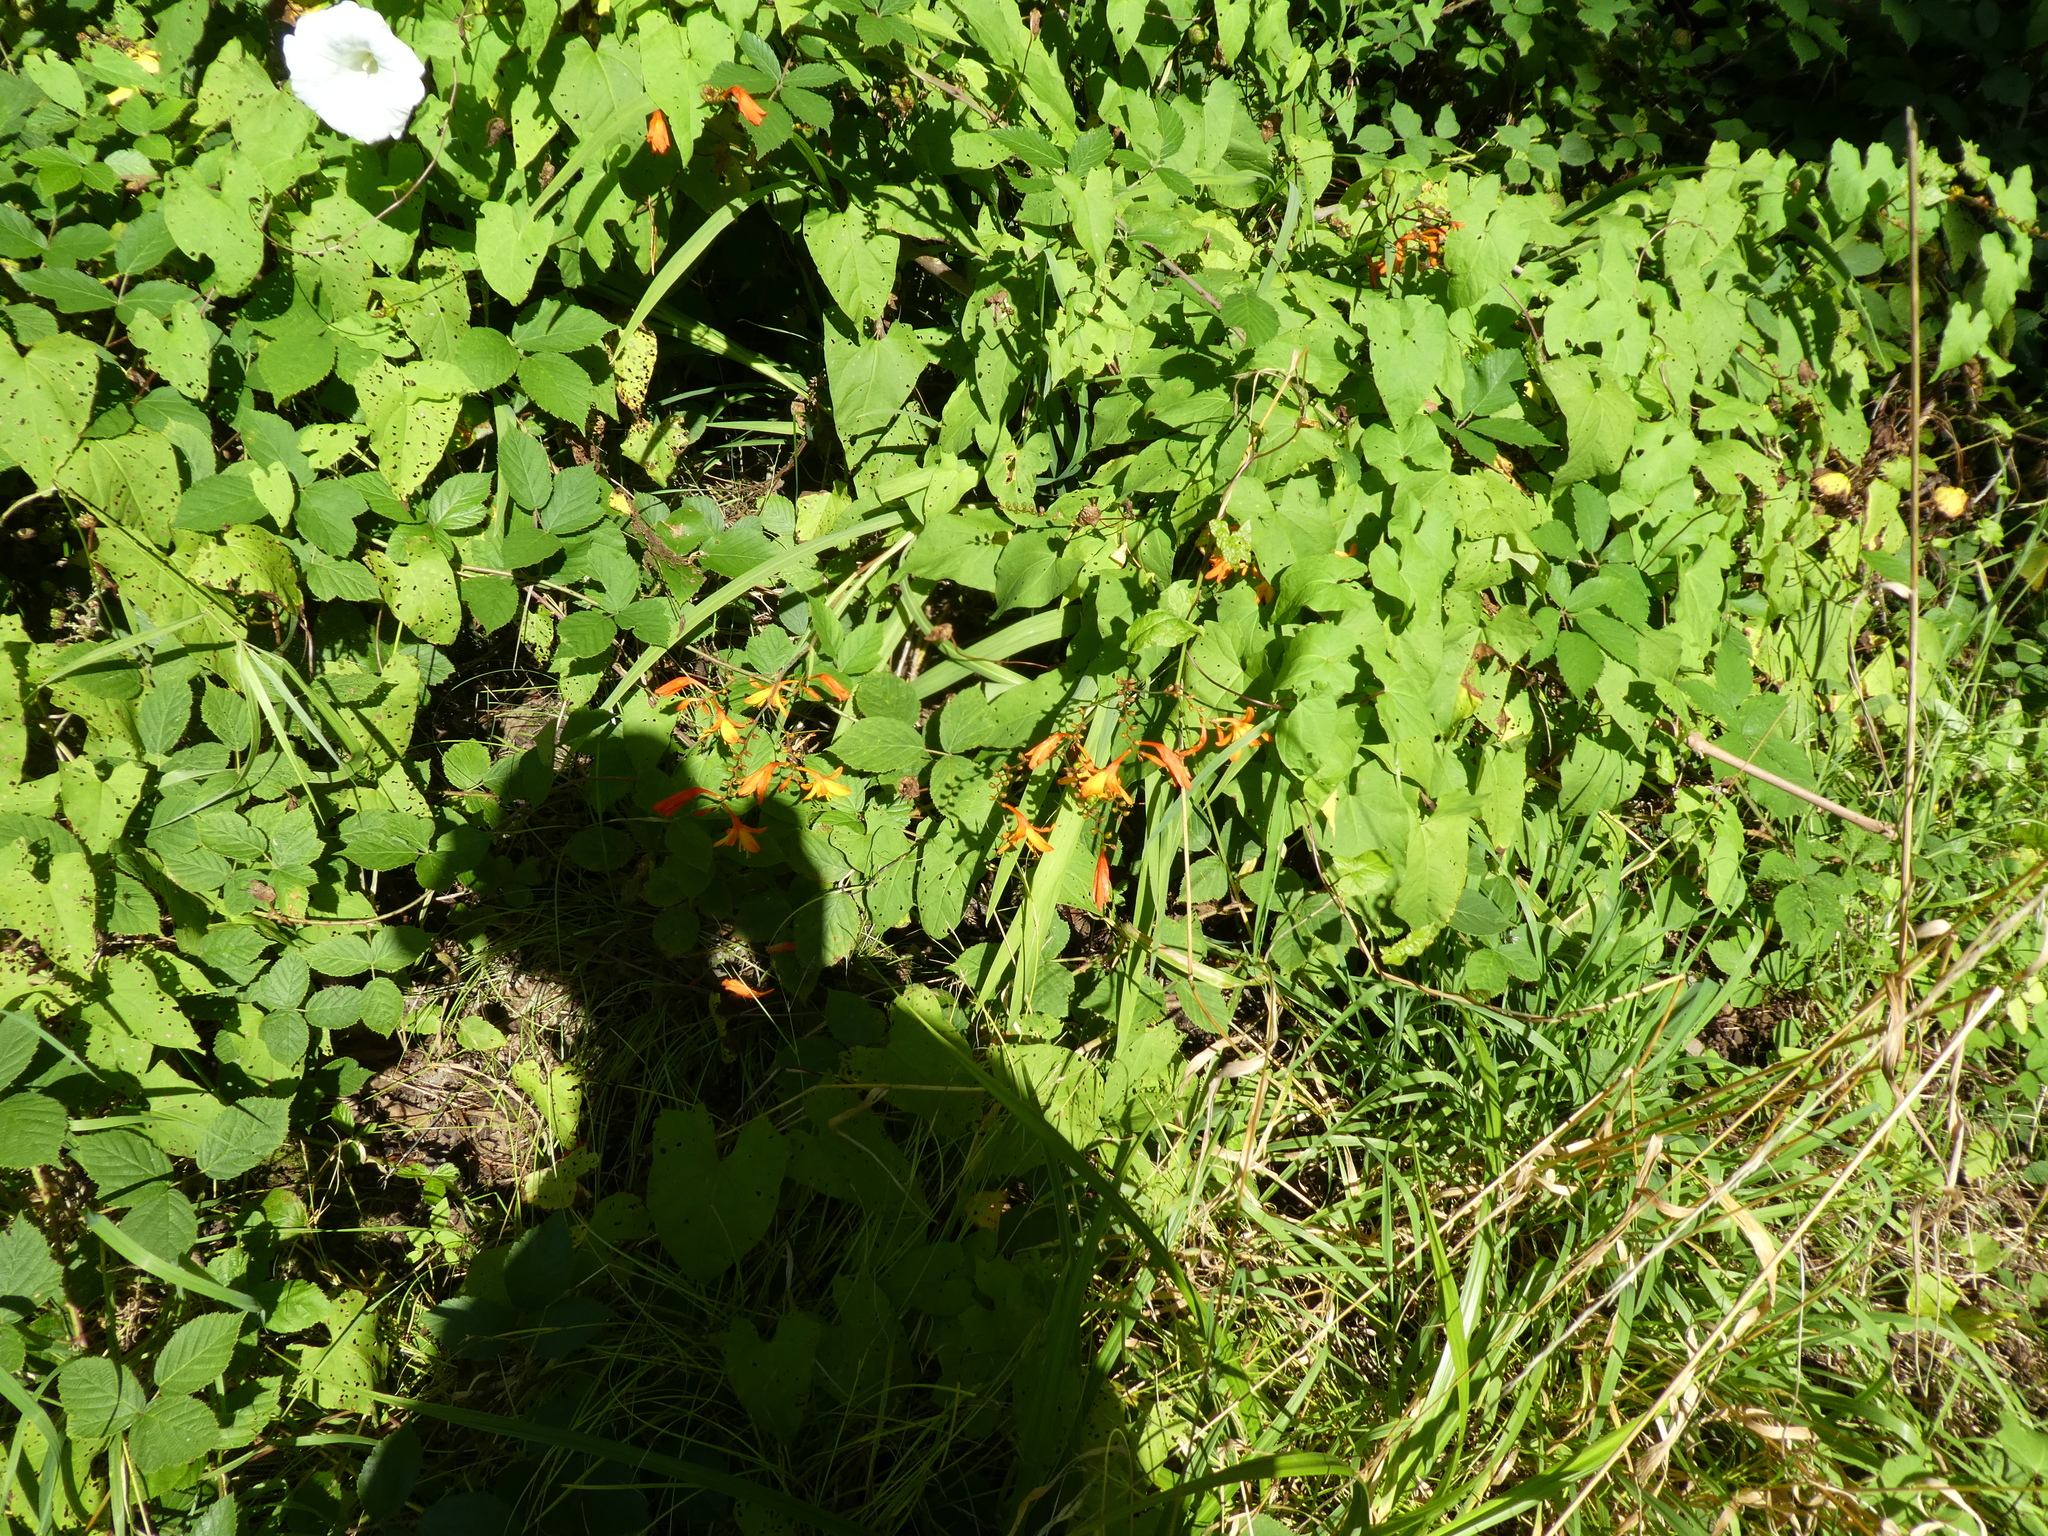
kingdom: Plantae
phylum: Tracheophyta
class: Liliopsida
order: Asparagales
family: Iridaceae
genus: Crocosmia
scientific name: Crocosmia crocosmiiflora
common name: Montbretia
